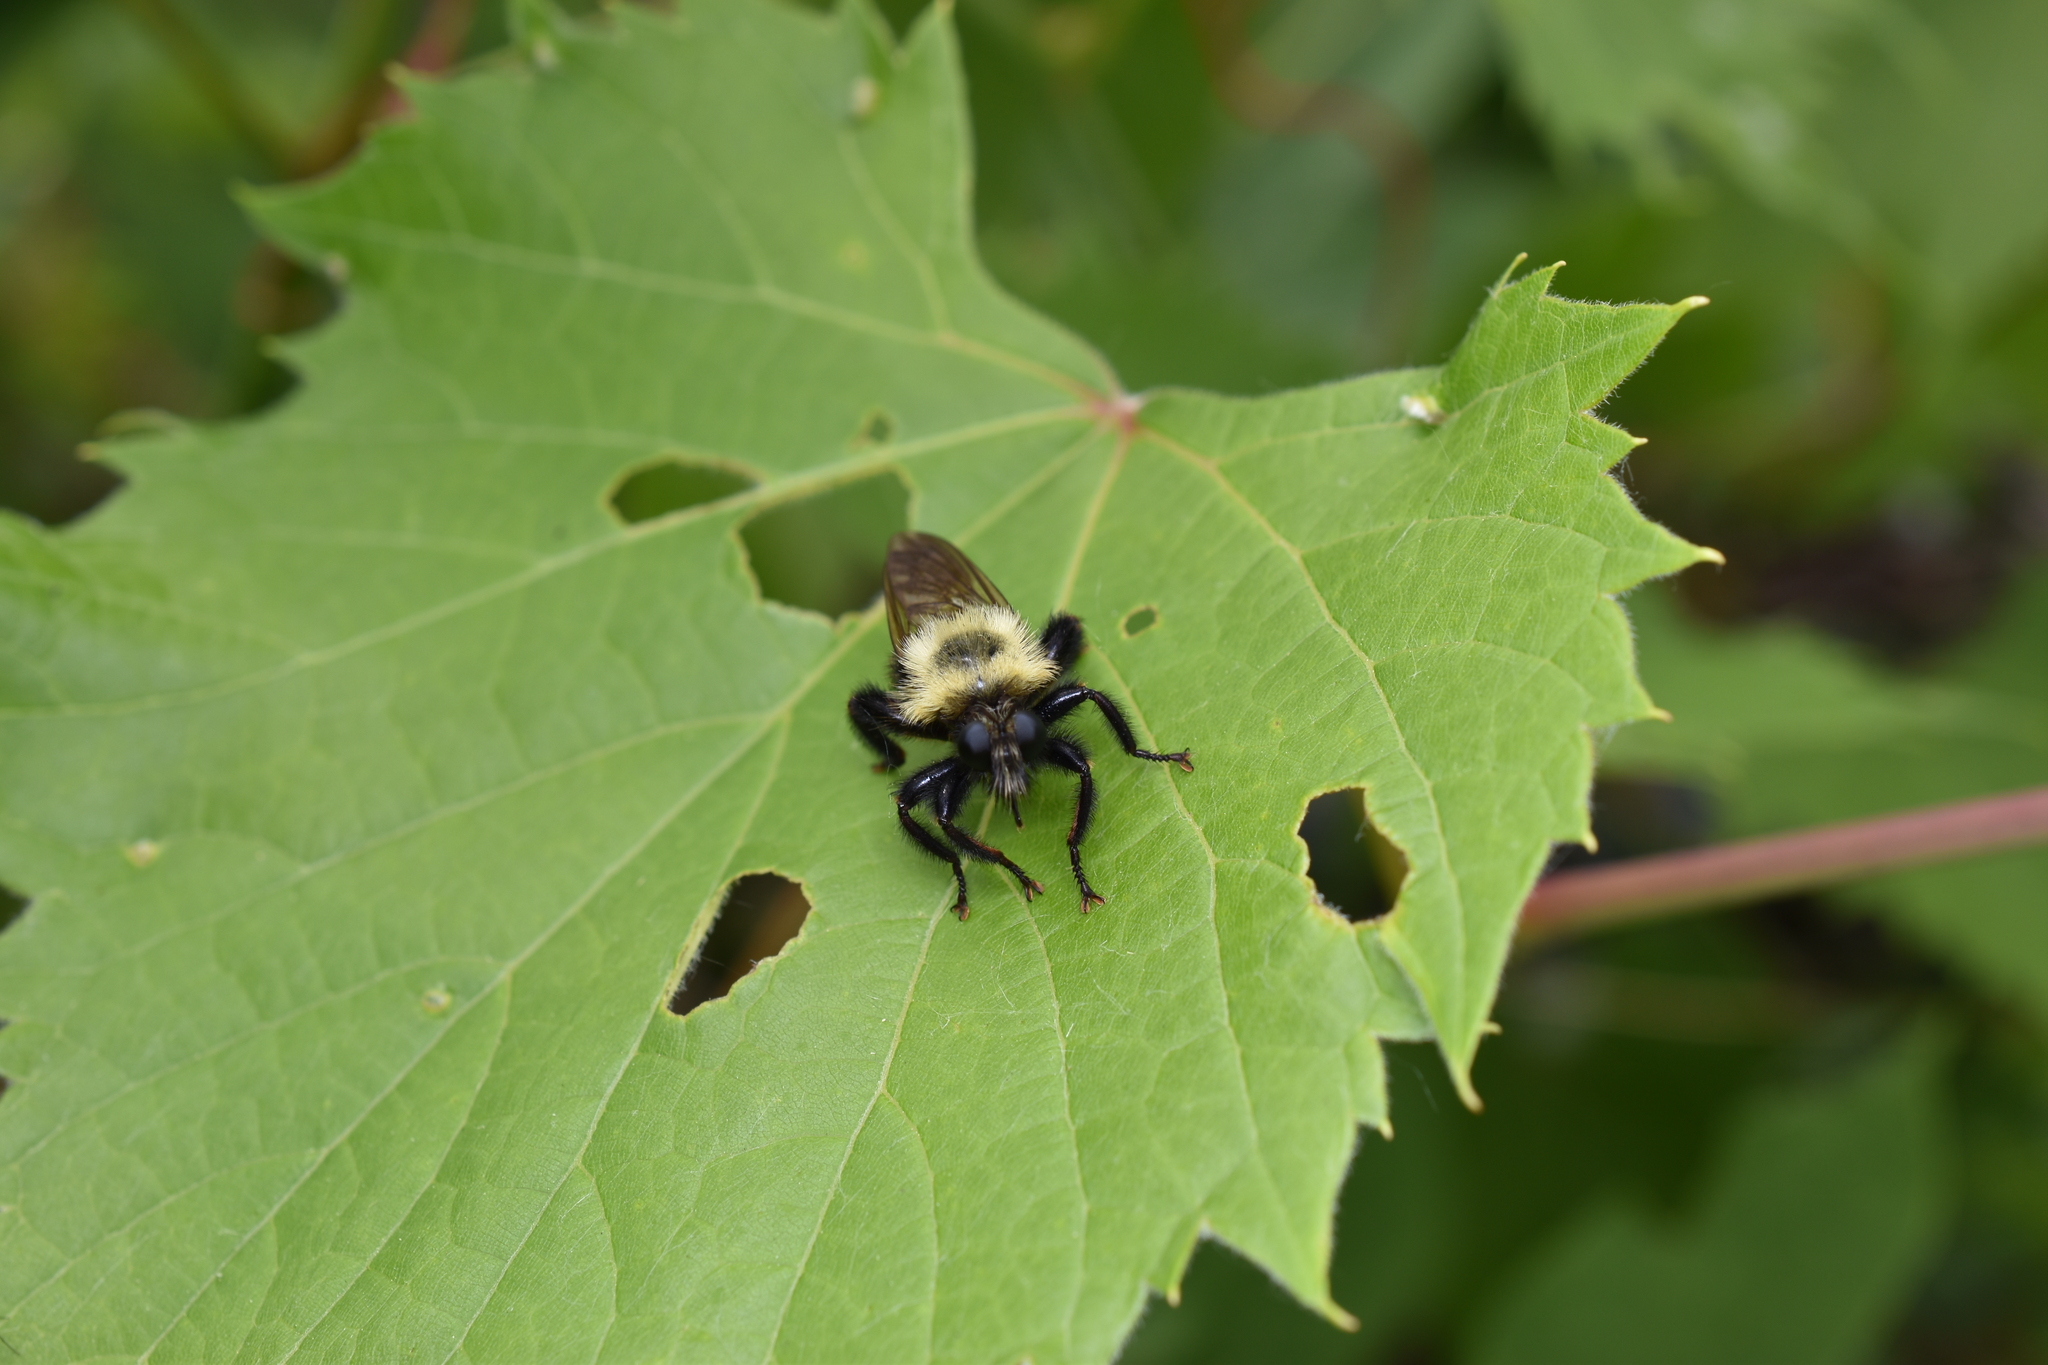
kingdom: Animalia
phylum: Arthropoda
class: Insecta
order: Diptera
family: Asilidae
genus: Laphria
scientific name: Laphria thoracica
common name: Bumble bee mimic robber fly
